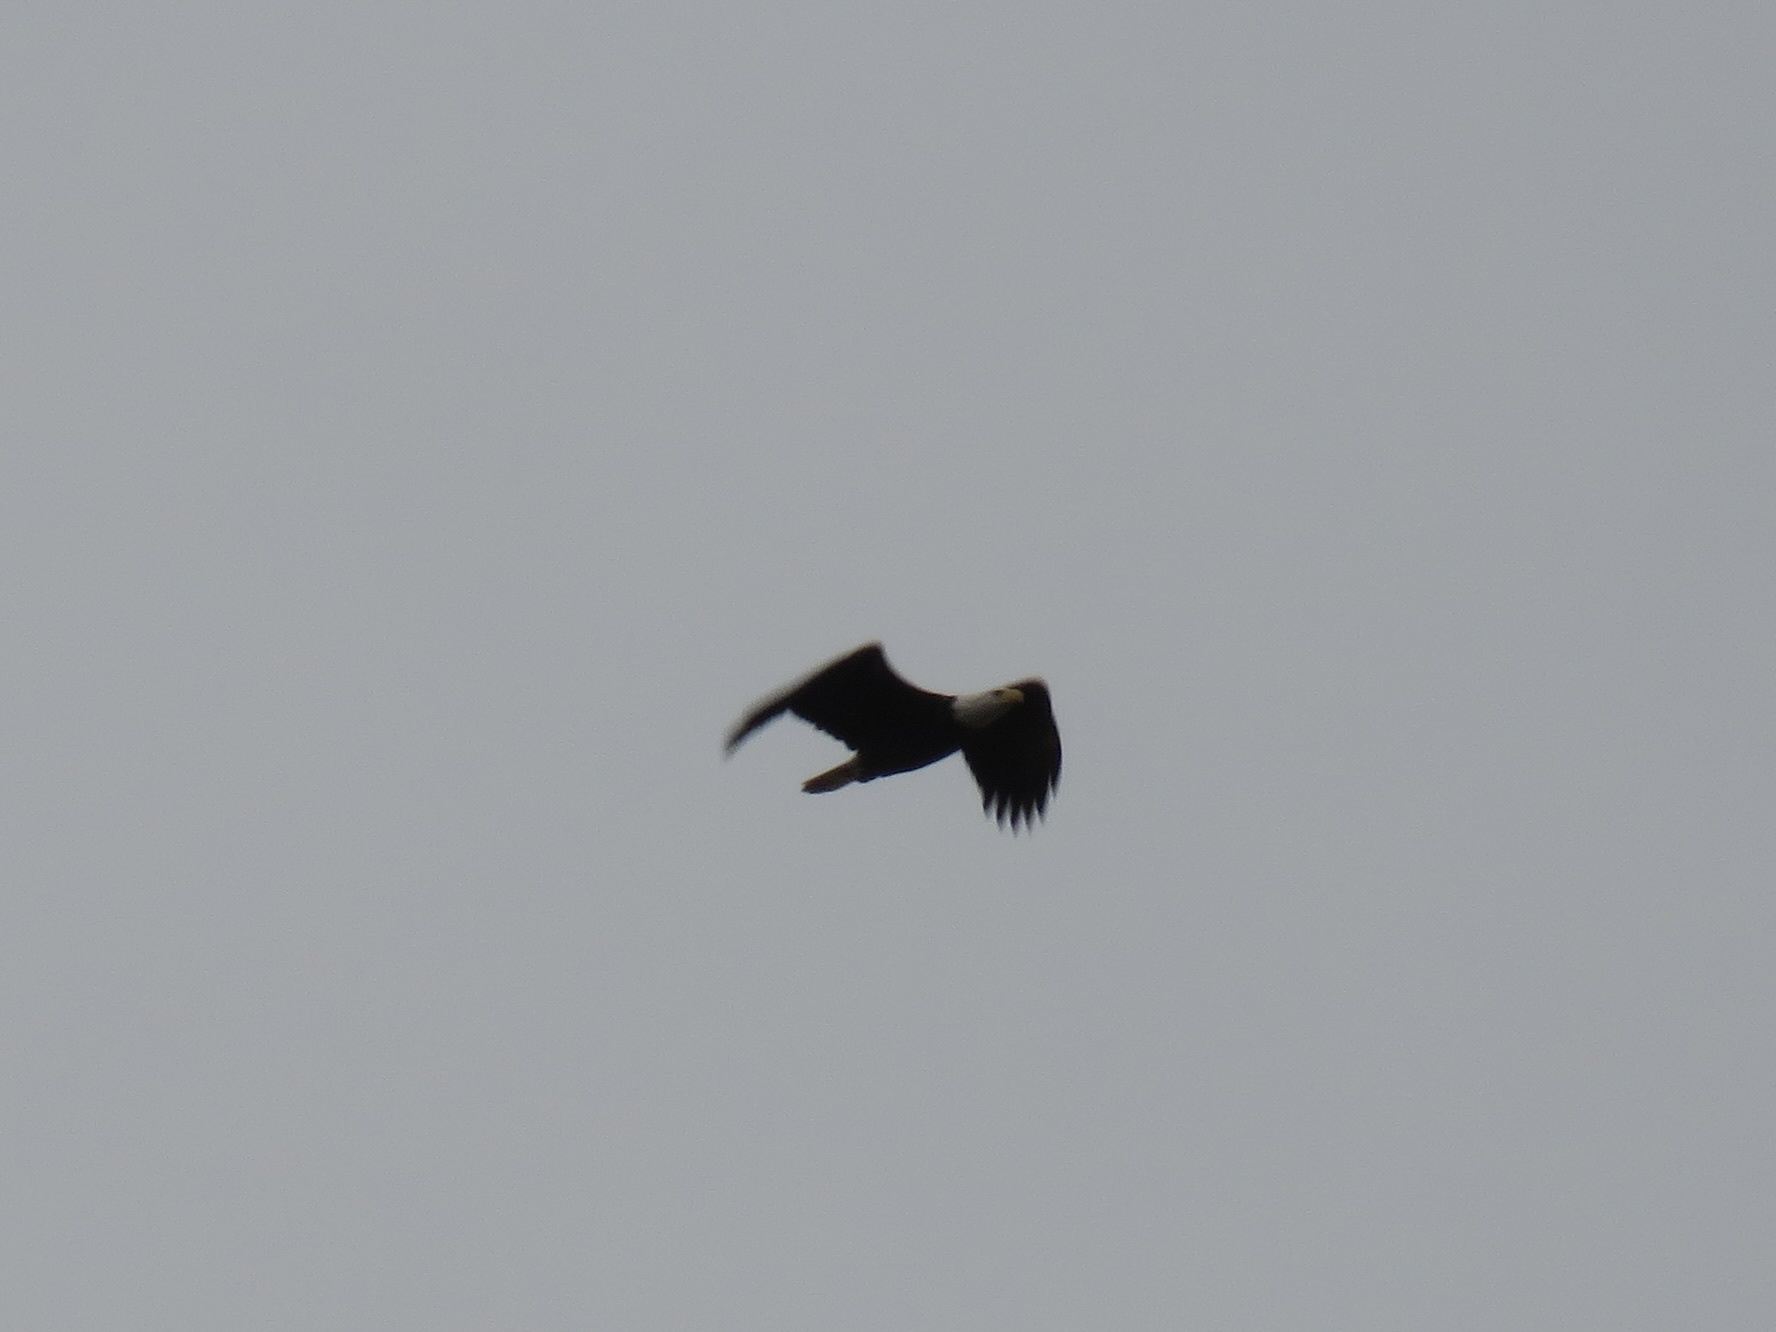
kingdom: Animalia
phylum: Chordata
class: Aves
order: Accipitriformes
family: Accipitridae
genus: Haliaeetus
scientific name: Haliaeetus leucocephalus
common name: Bald eagle
